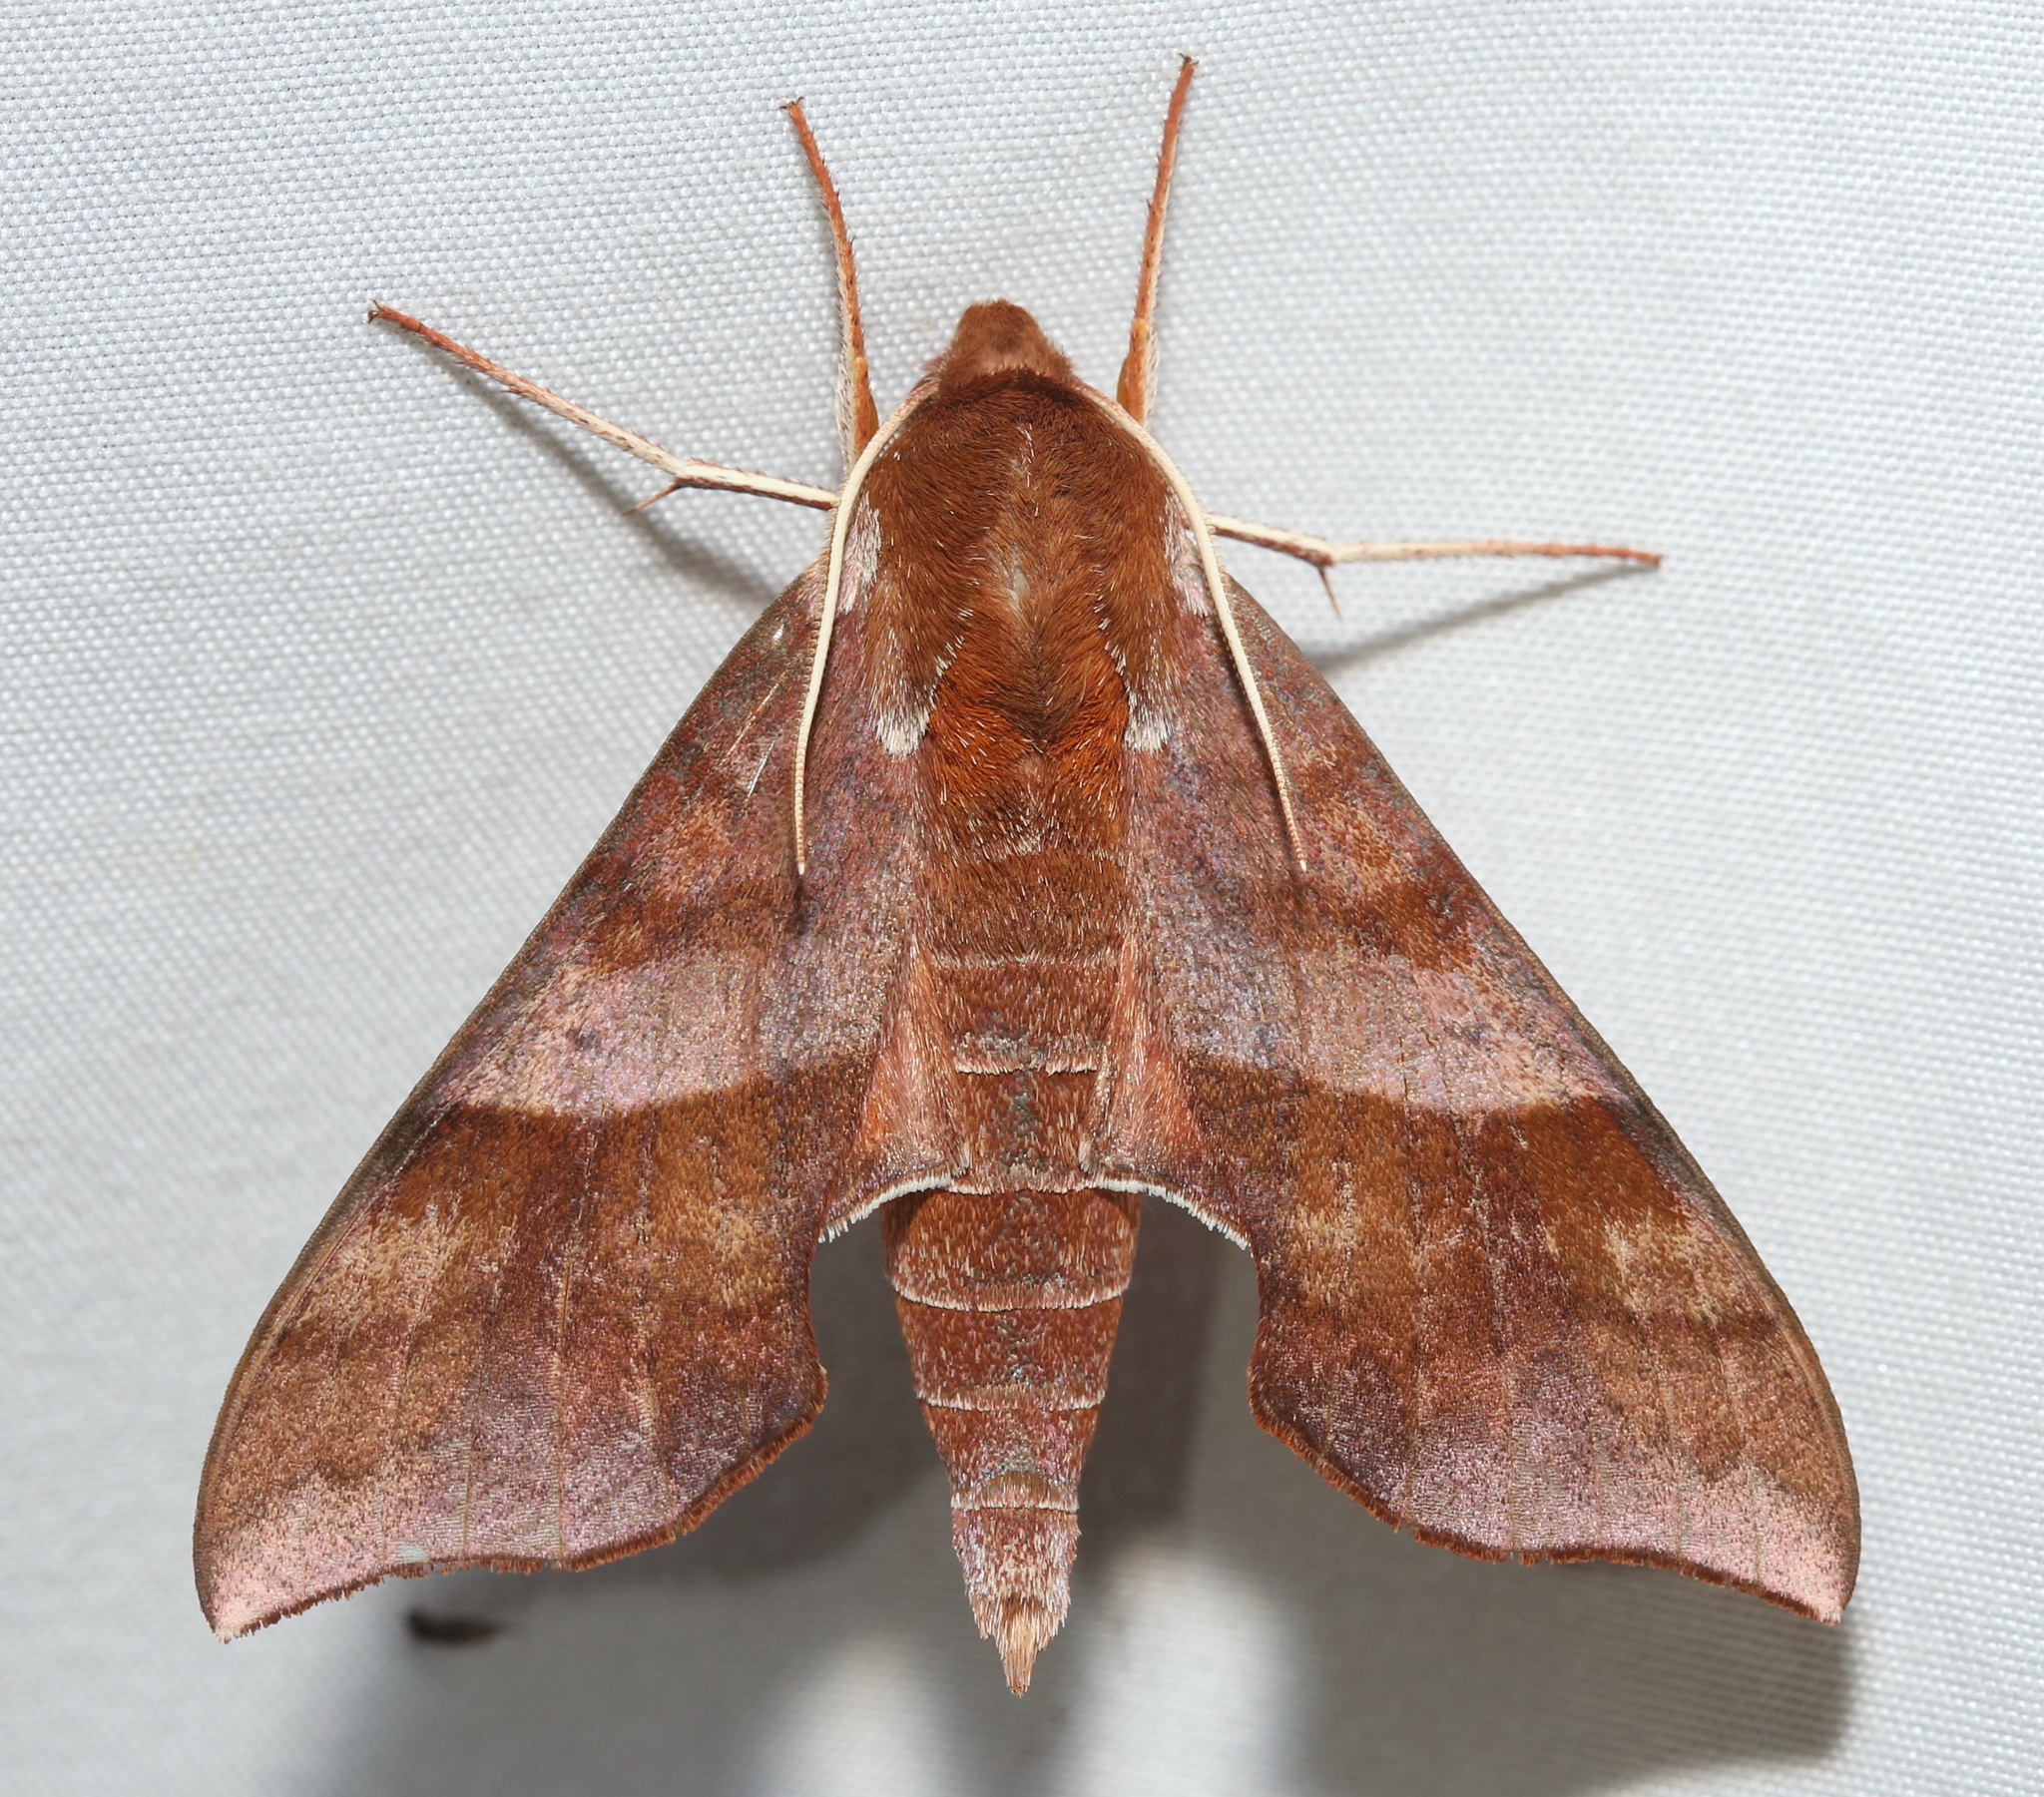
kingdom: Animalia
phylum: Arthropoda
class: Insecta
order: Lepidoptera
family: Sphingidae
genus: Darapsa
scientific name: Darapsa choerilus
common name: Azalea sphinx
